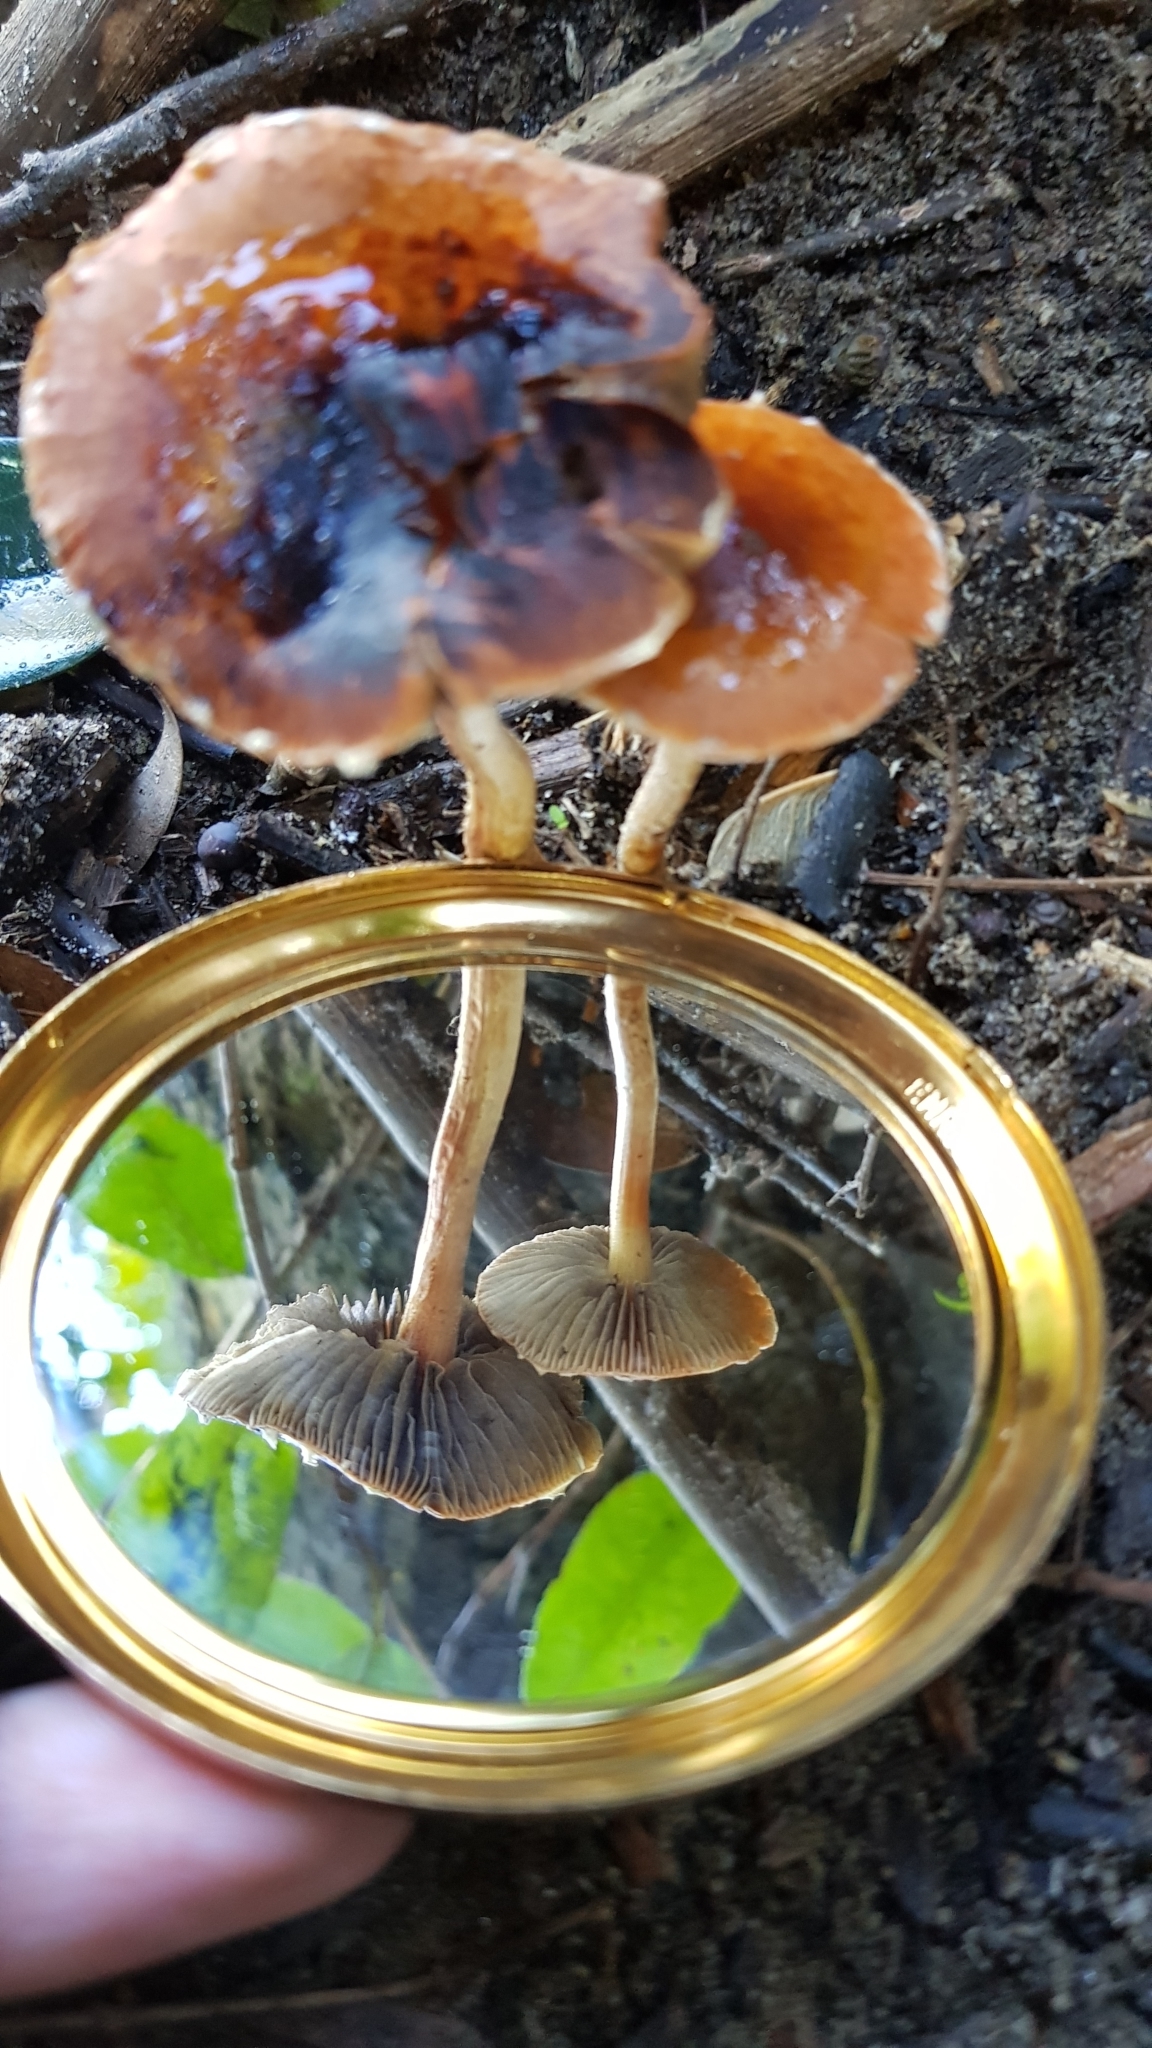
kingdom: Fungi
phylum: Basidiomycota
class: Agaricomycetes
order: Agaricales
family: Strophariaceae
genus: Leratiomyces
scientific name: Leratiomyces ceres
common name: Redlead roundhead
